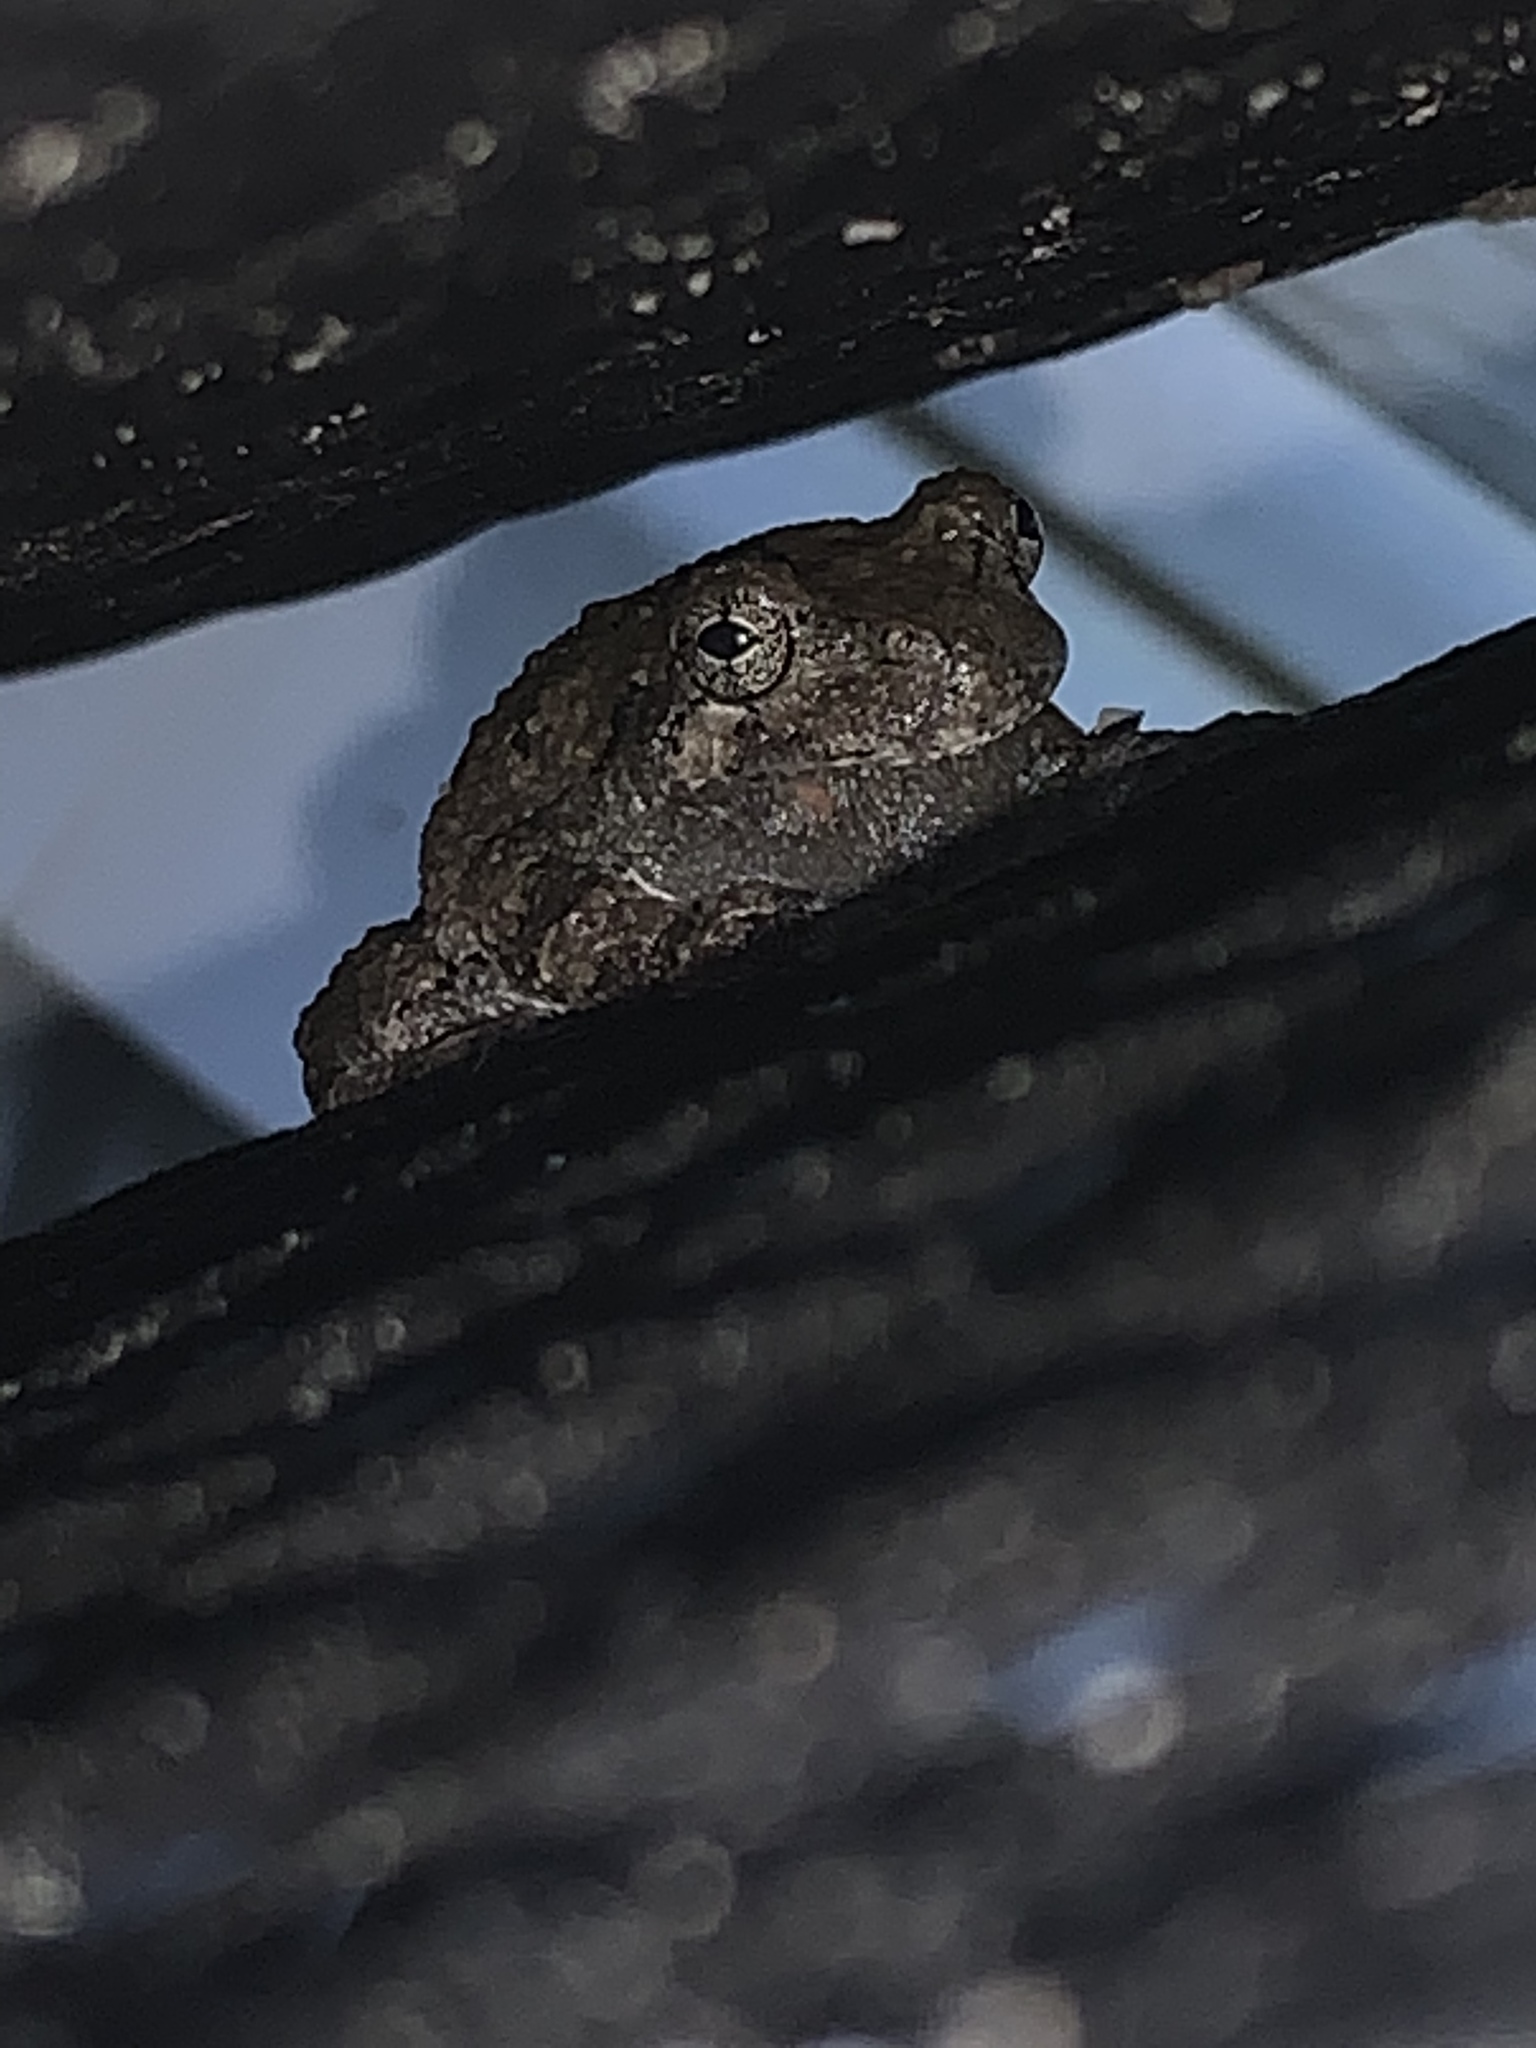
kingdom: Animalia
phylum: Chordata
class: Amphibia
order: Anura
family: Hylidae
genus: Dryophytes
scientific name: Dryophytes versicolor
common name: Gray treefrog
